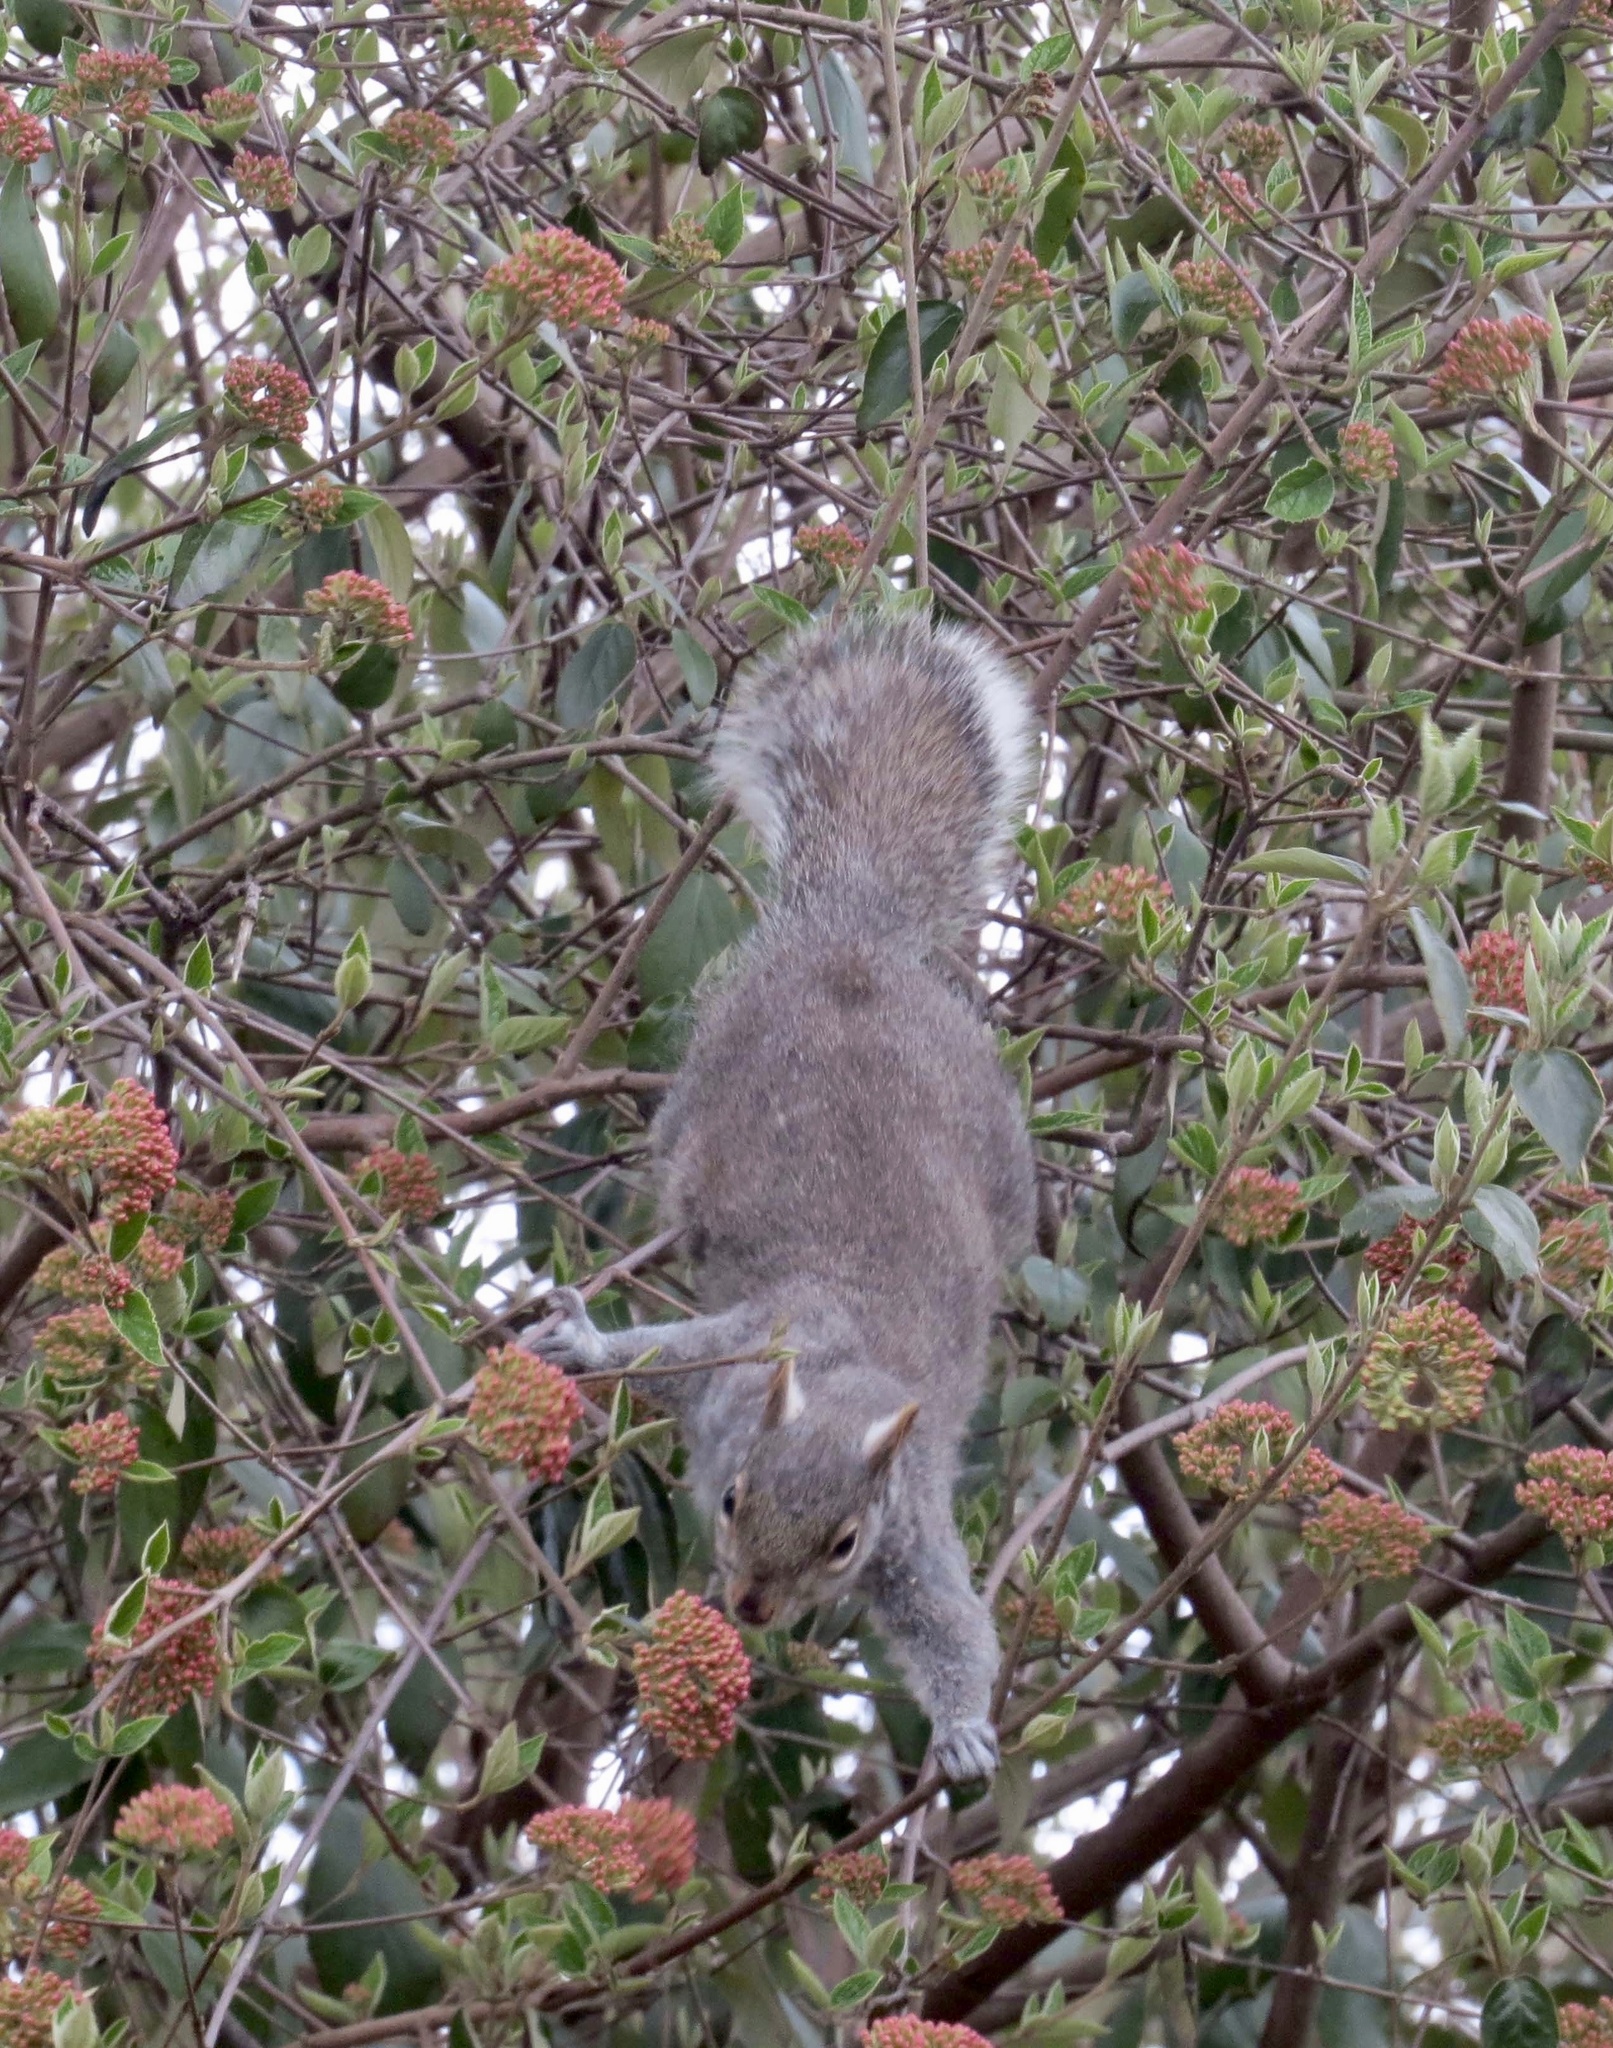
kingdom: Animalia
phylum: Chordata
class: Mammalia
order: Rodentia
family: Sciuridae
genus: Sciurus
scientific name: Sciurus carolinensis
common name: Eastern gray squirrel
